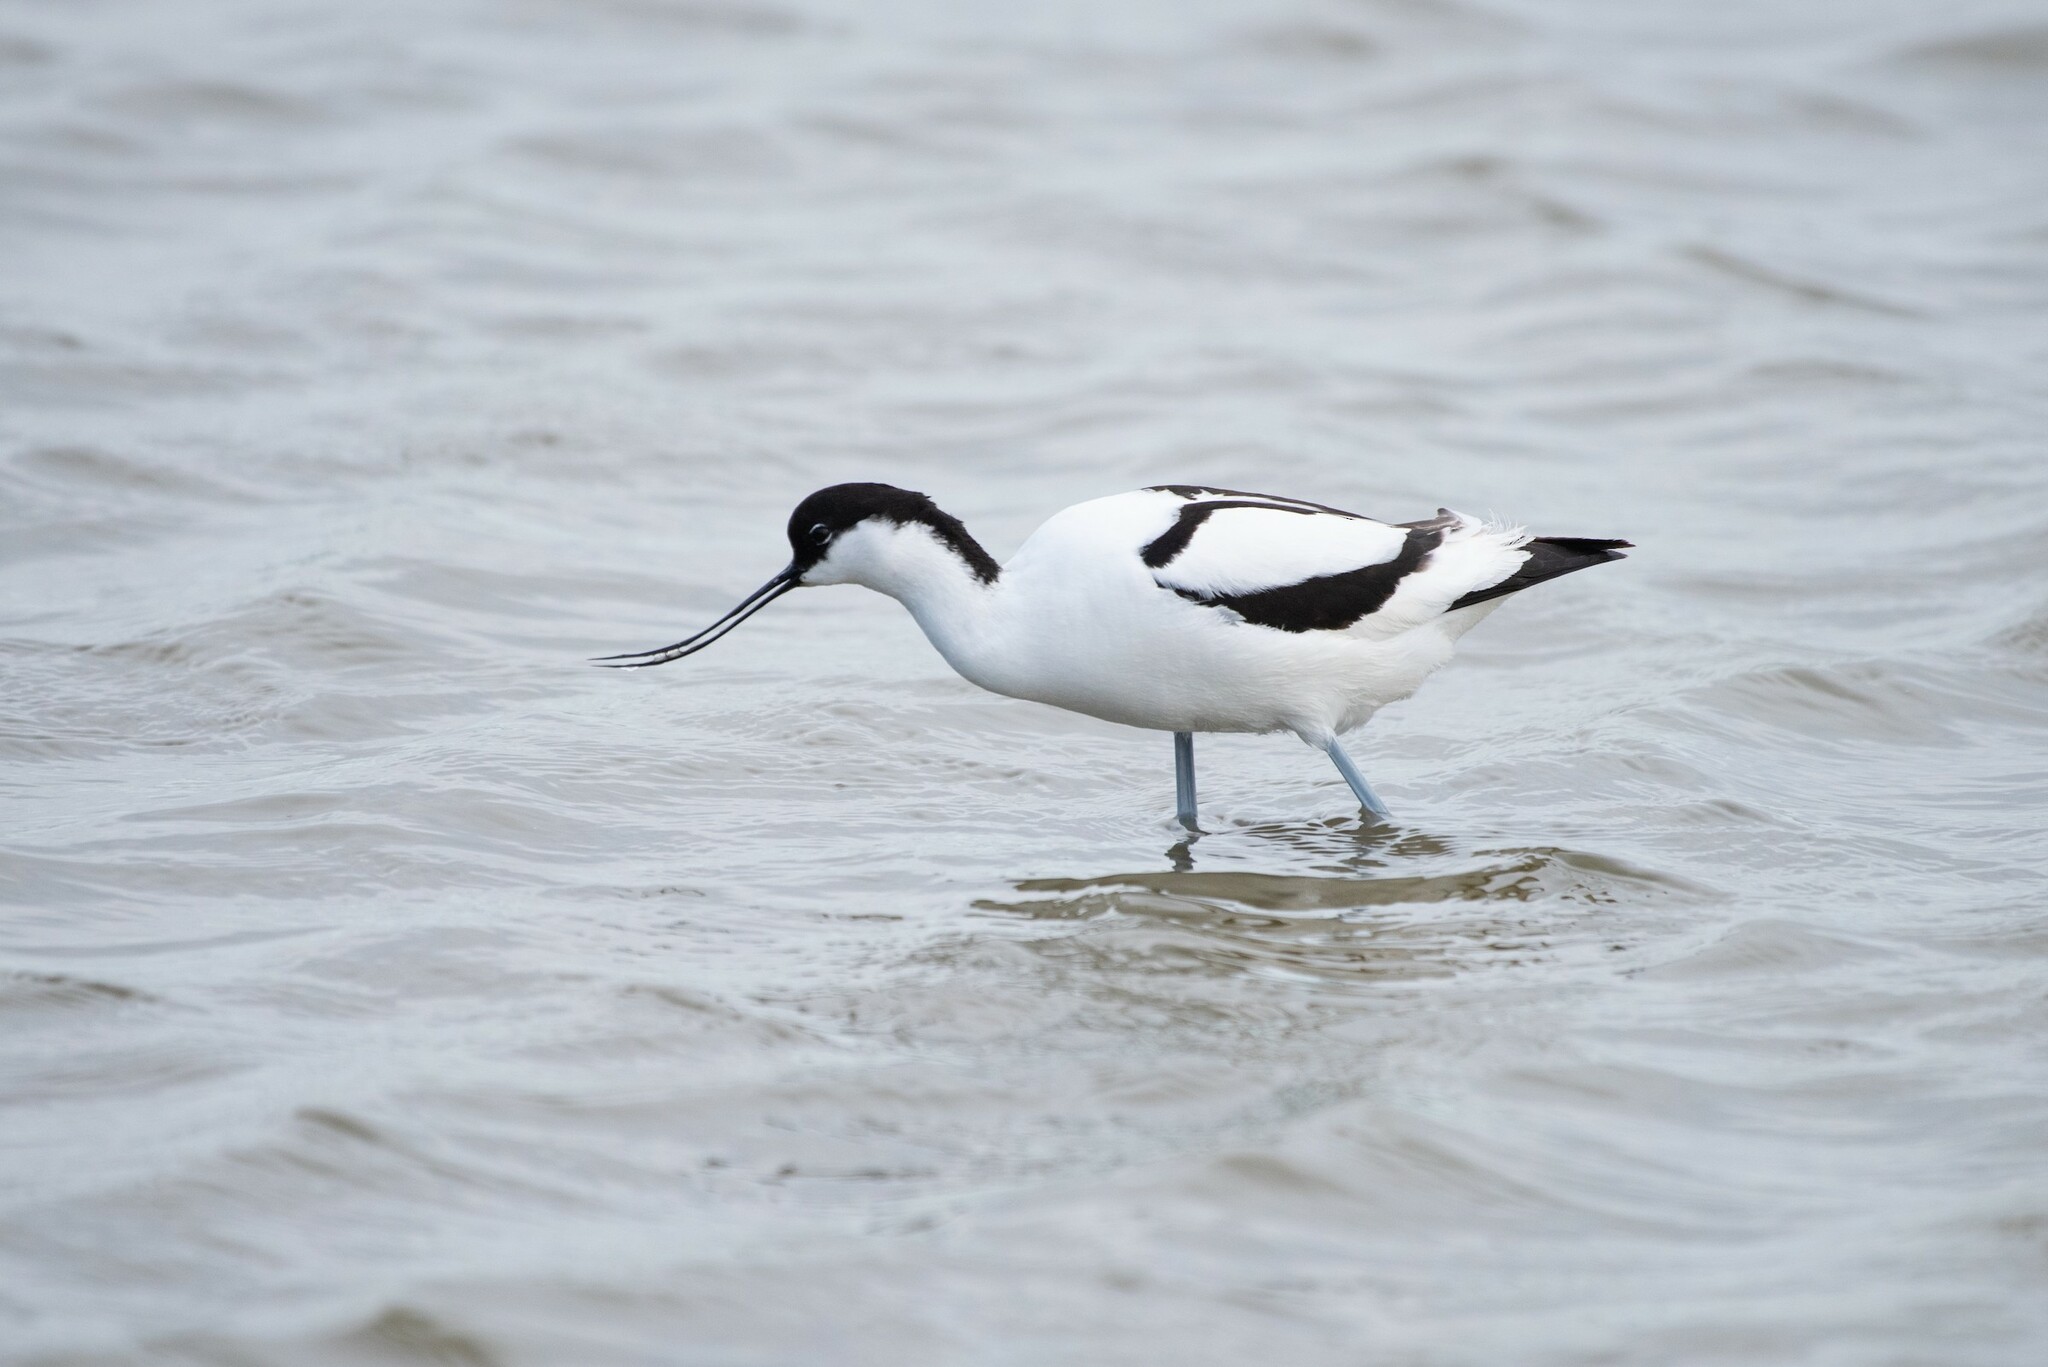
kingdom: Animalia
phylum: Chordata
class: Aves
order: Charadriiformes
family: Recurvirostridae
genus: Recurvirostra
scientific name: Recurvirostra avosetta
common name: Pied avocet
